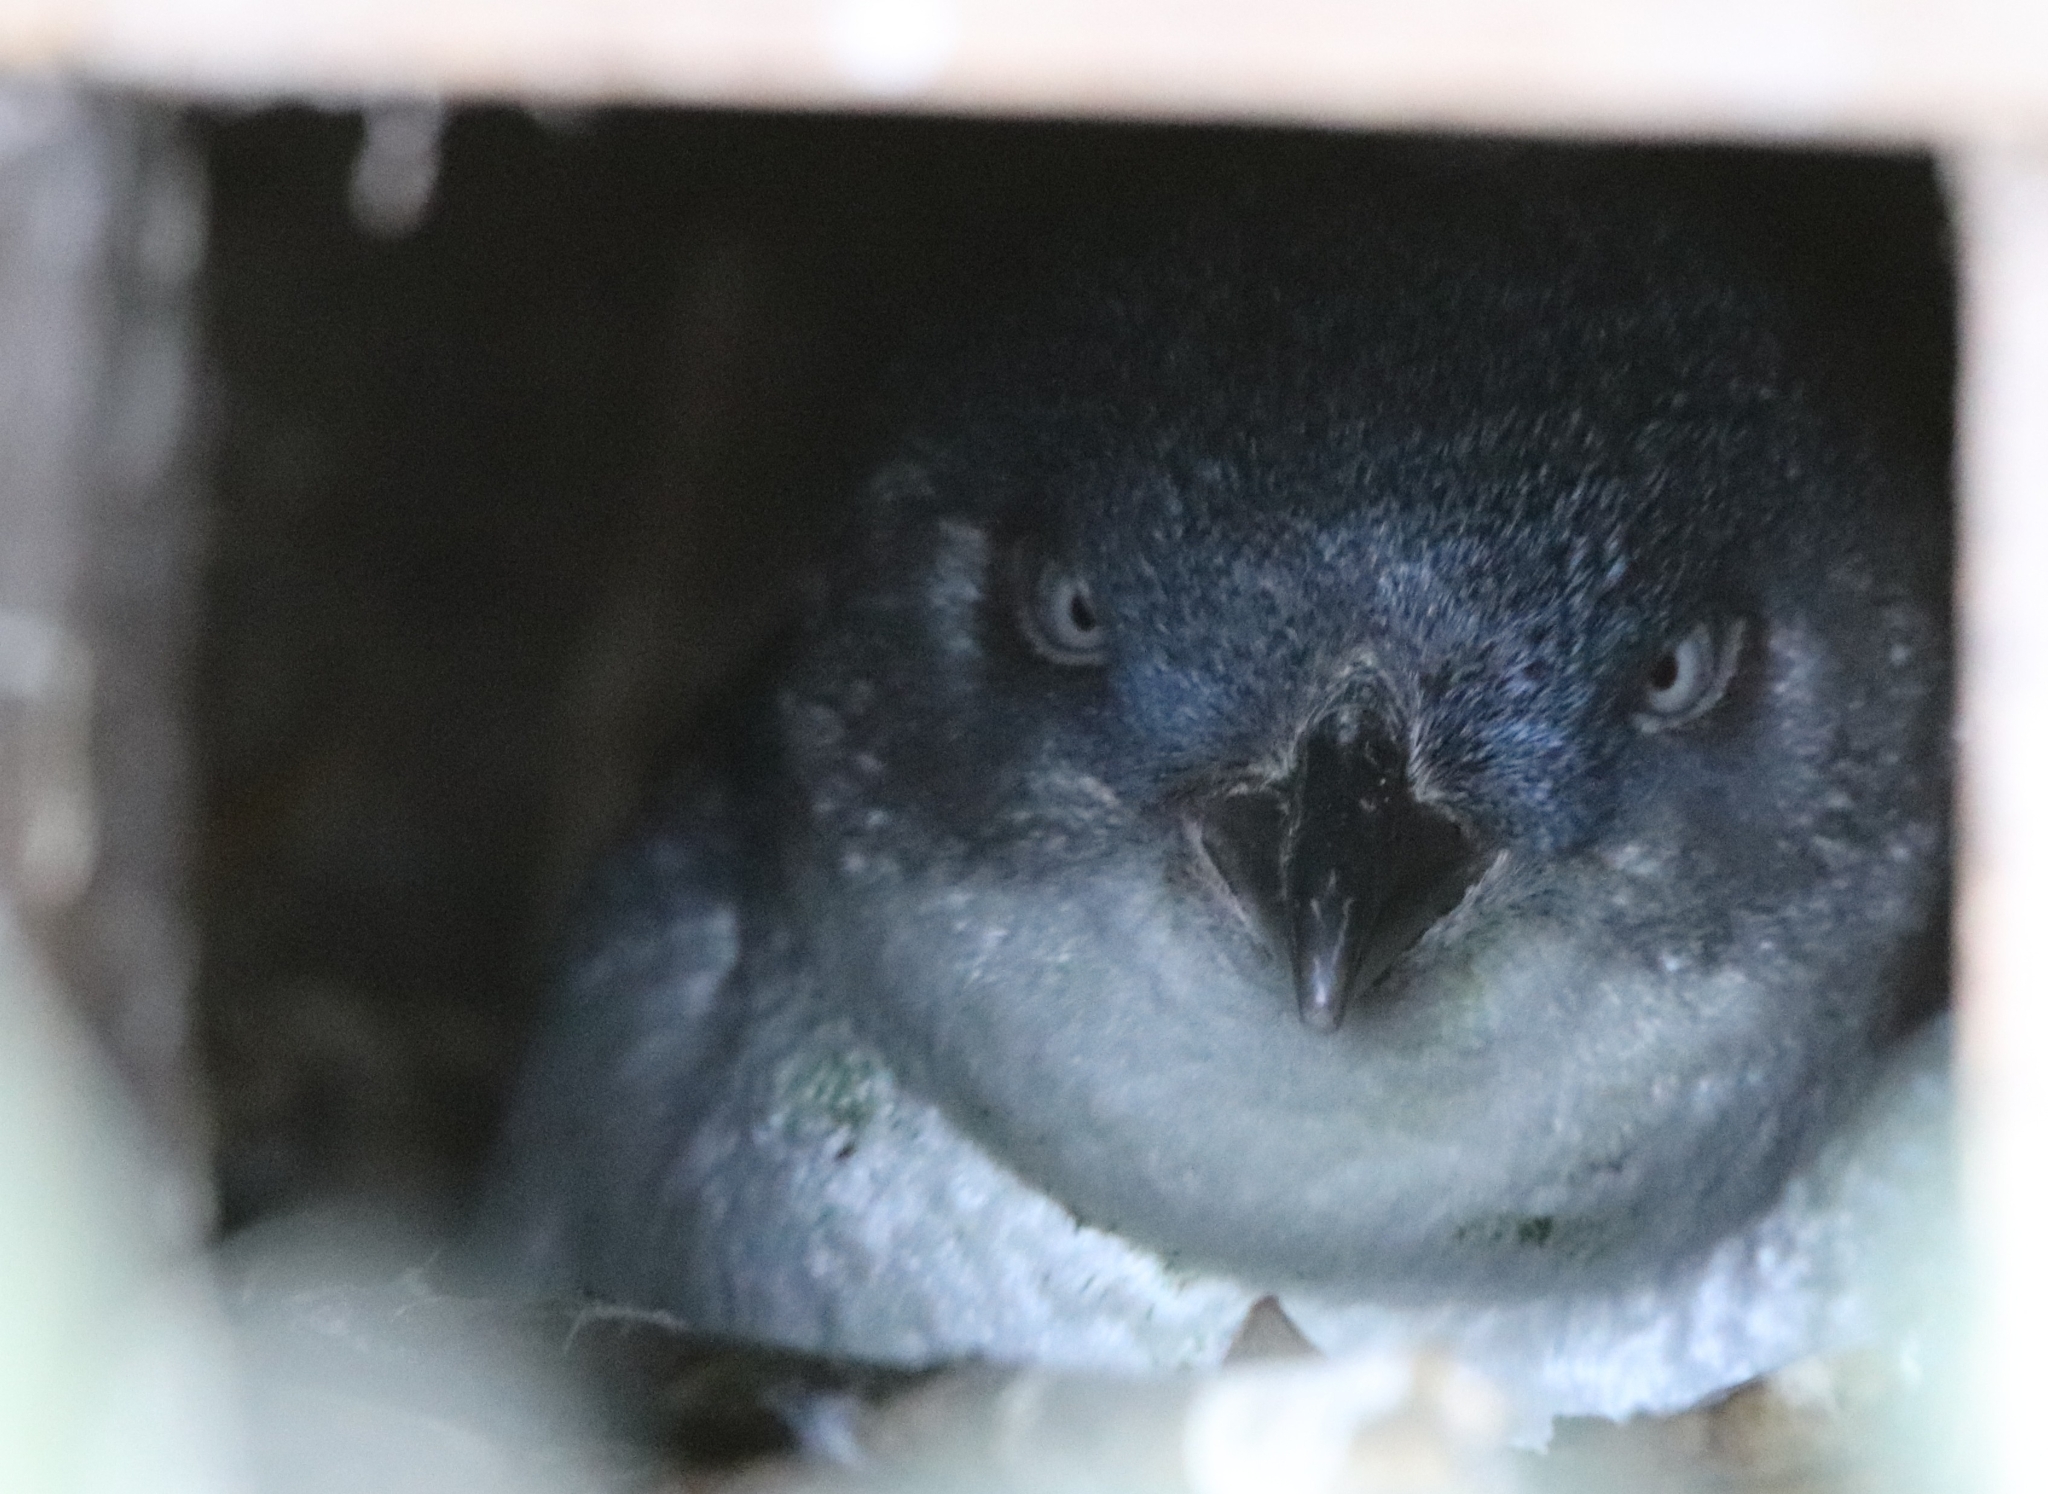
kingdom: Animalia
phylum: Chordata
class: Aves
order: Sphenisciformes
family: Spheniscidae
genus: Eudyptula
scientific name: Eudyptula minor
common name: Little penguin
